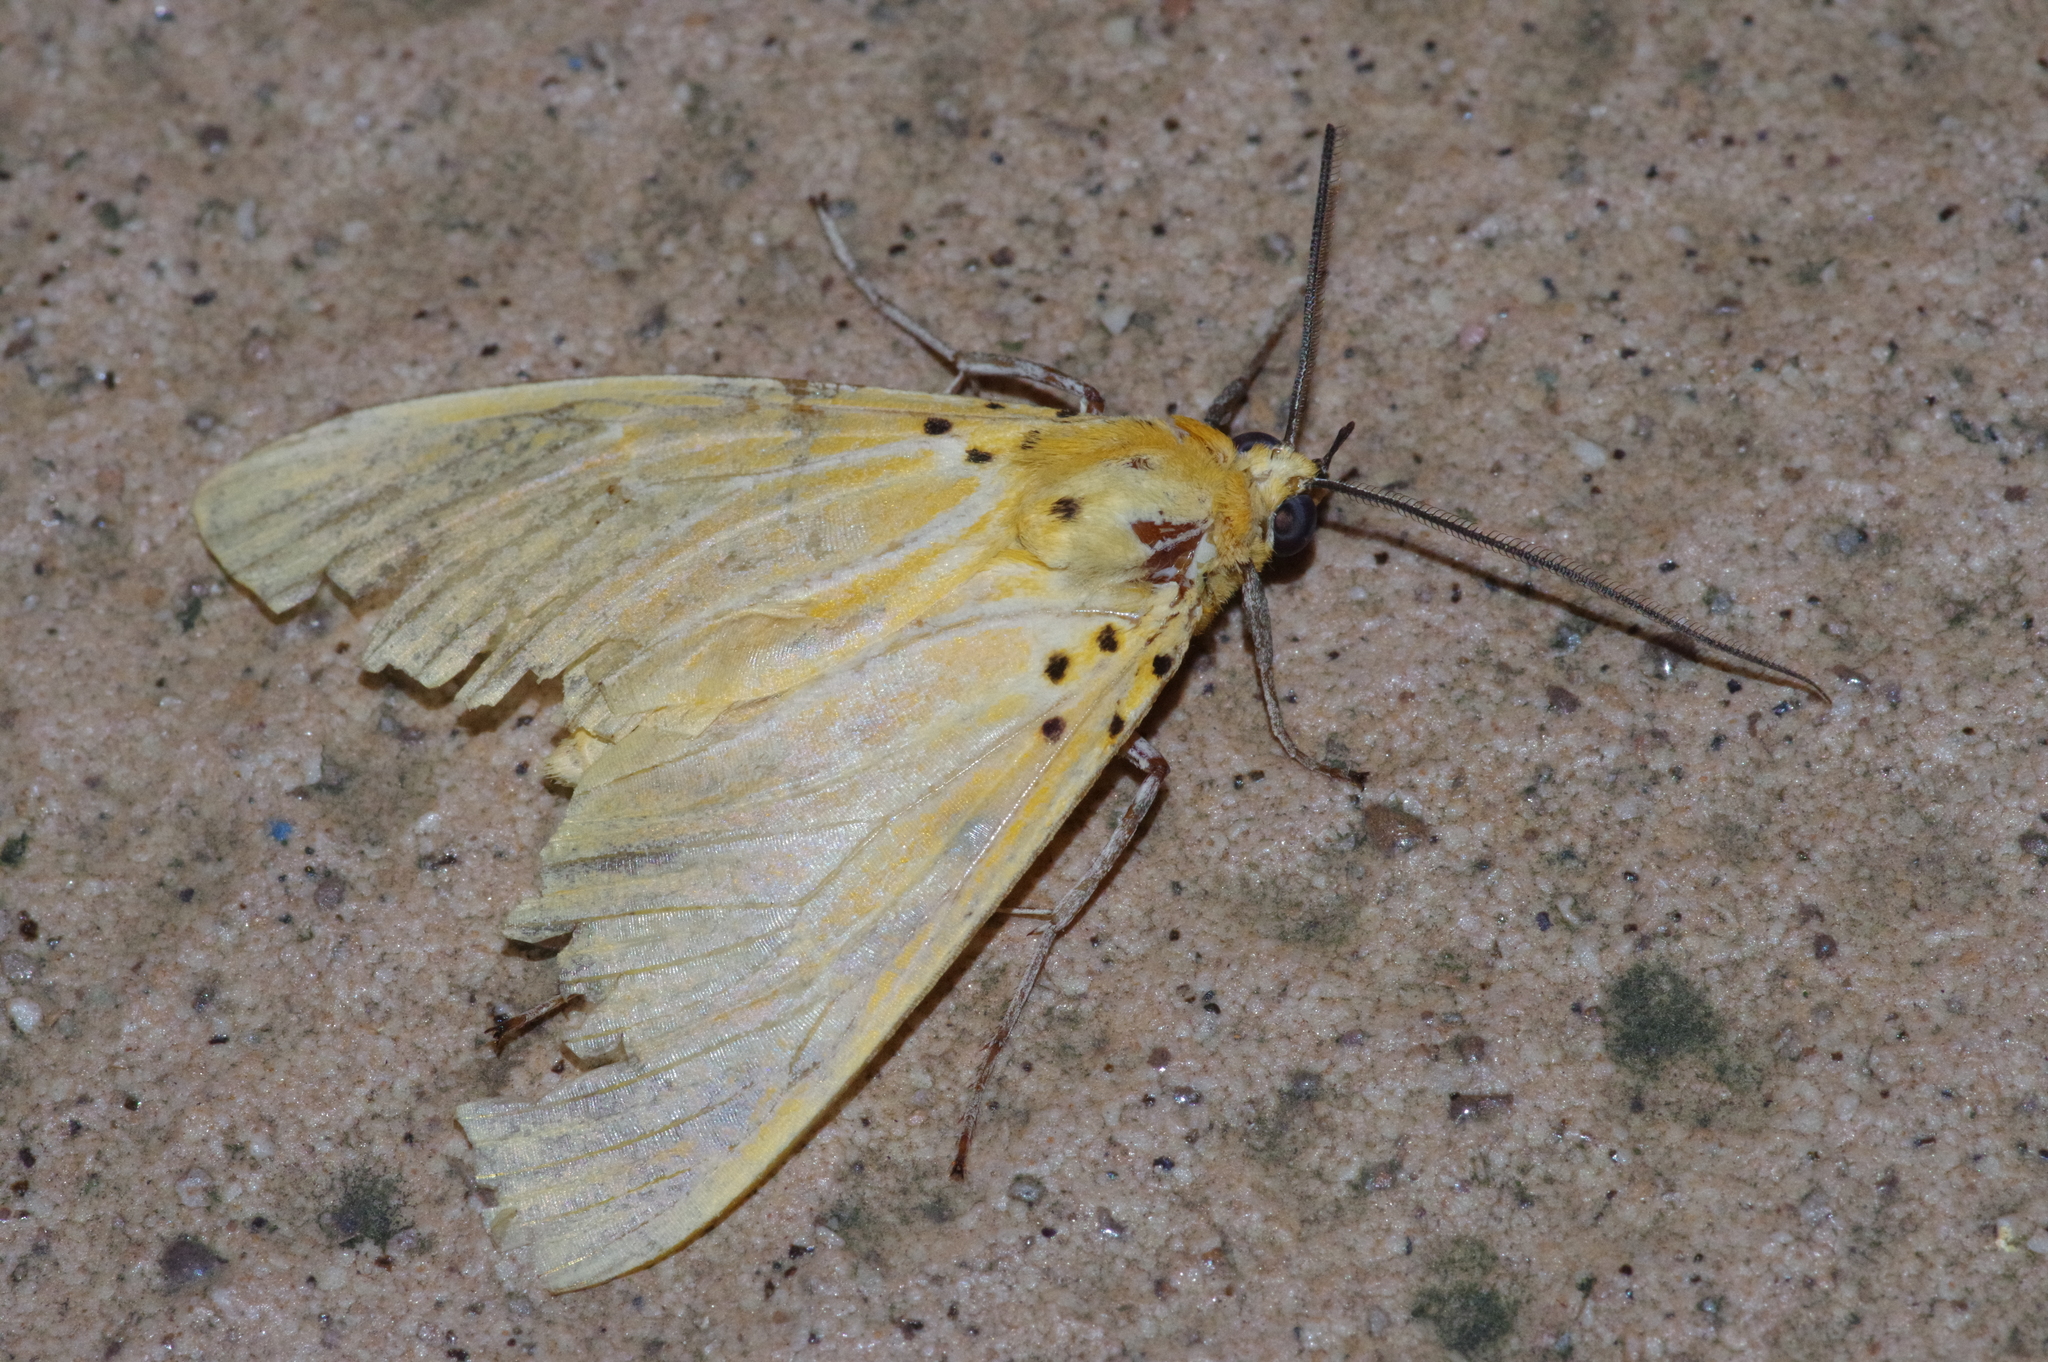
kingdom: Animalia
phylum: Arthropoda
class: Insecta
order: Lepidoptera
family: Erebidae
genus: Asota
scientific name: Asota egens
